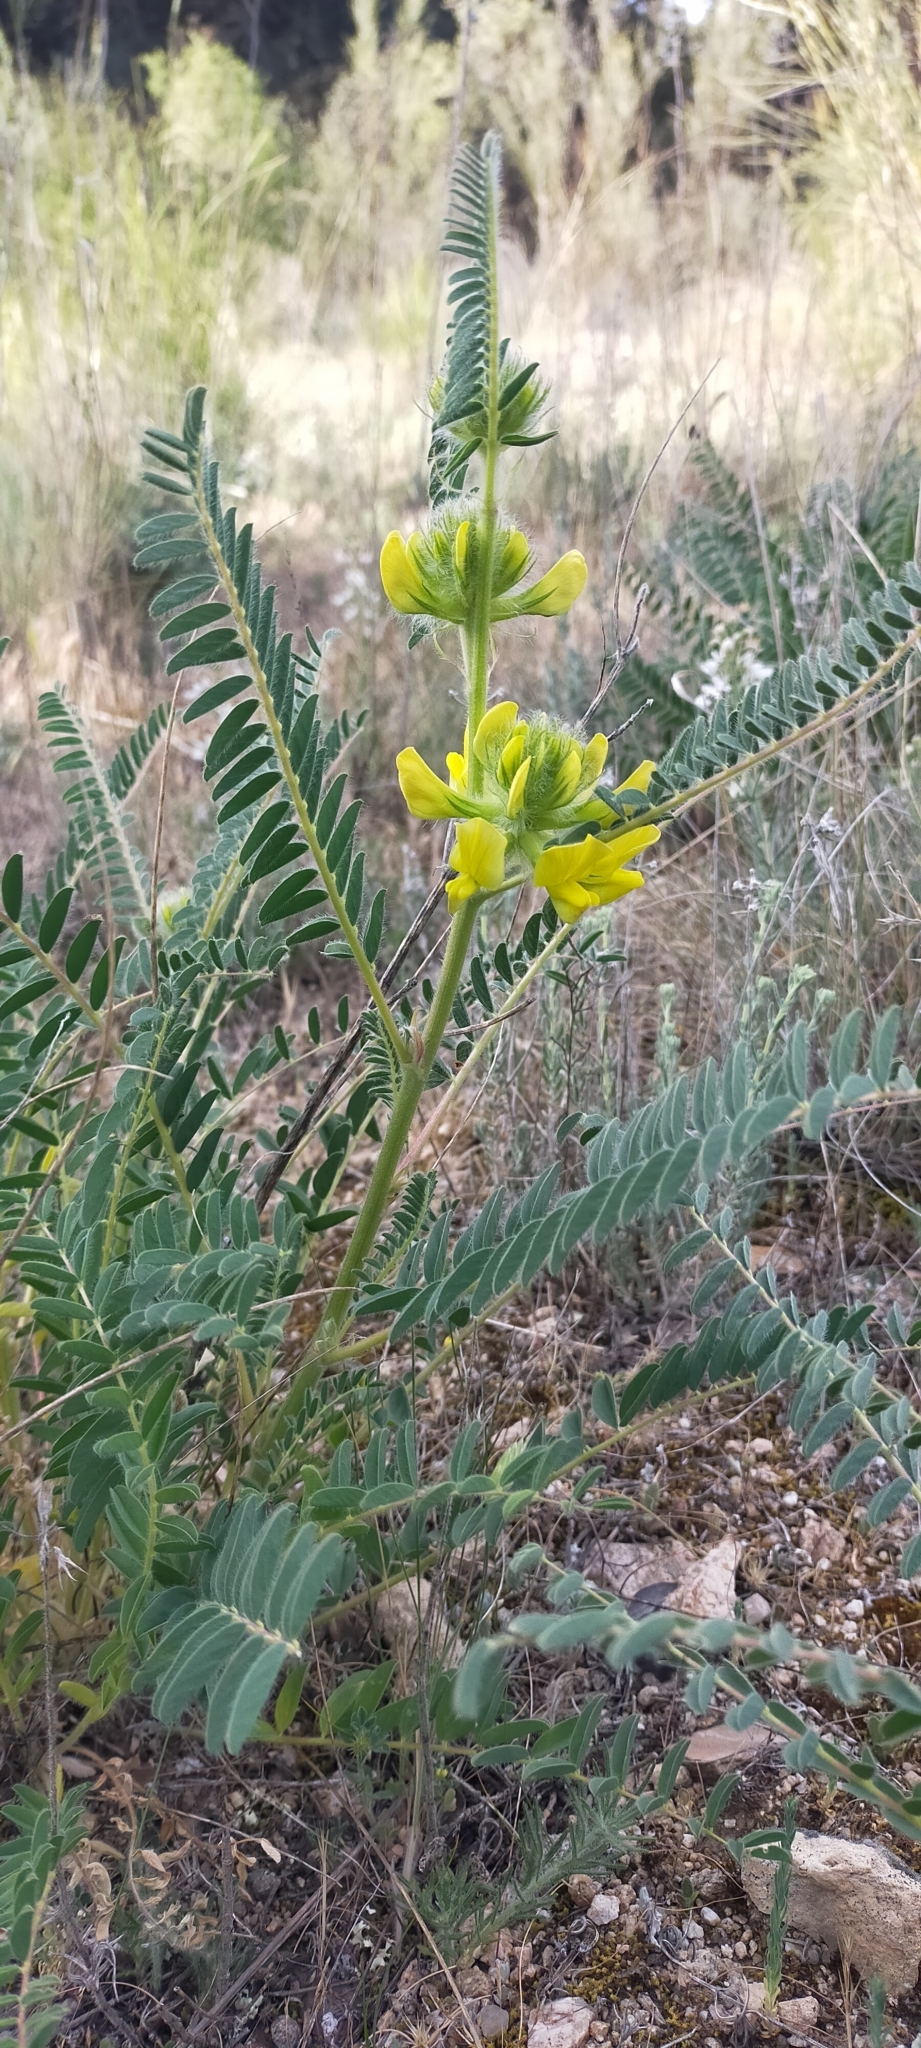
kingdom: Plantae
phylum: Tracheophyta
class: Magnoliopsida
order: Fabales
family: Fabaceae
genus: Astragalus
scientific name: Astragalus alopecuroides
